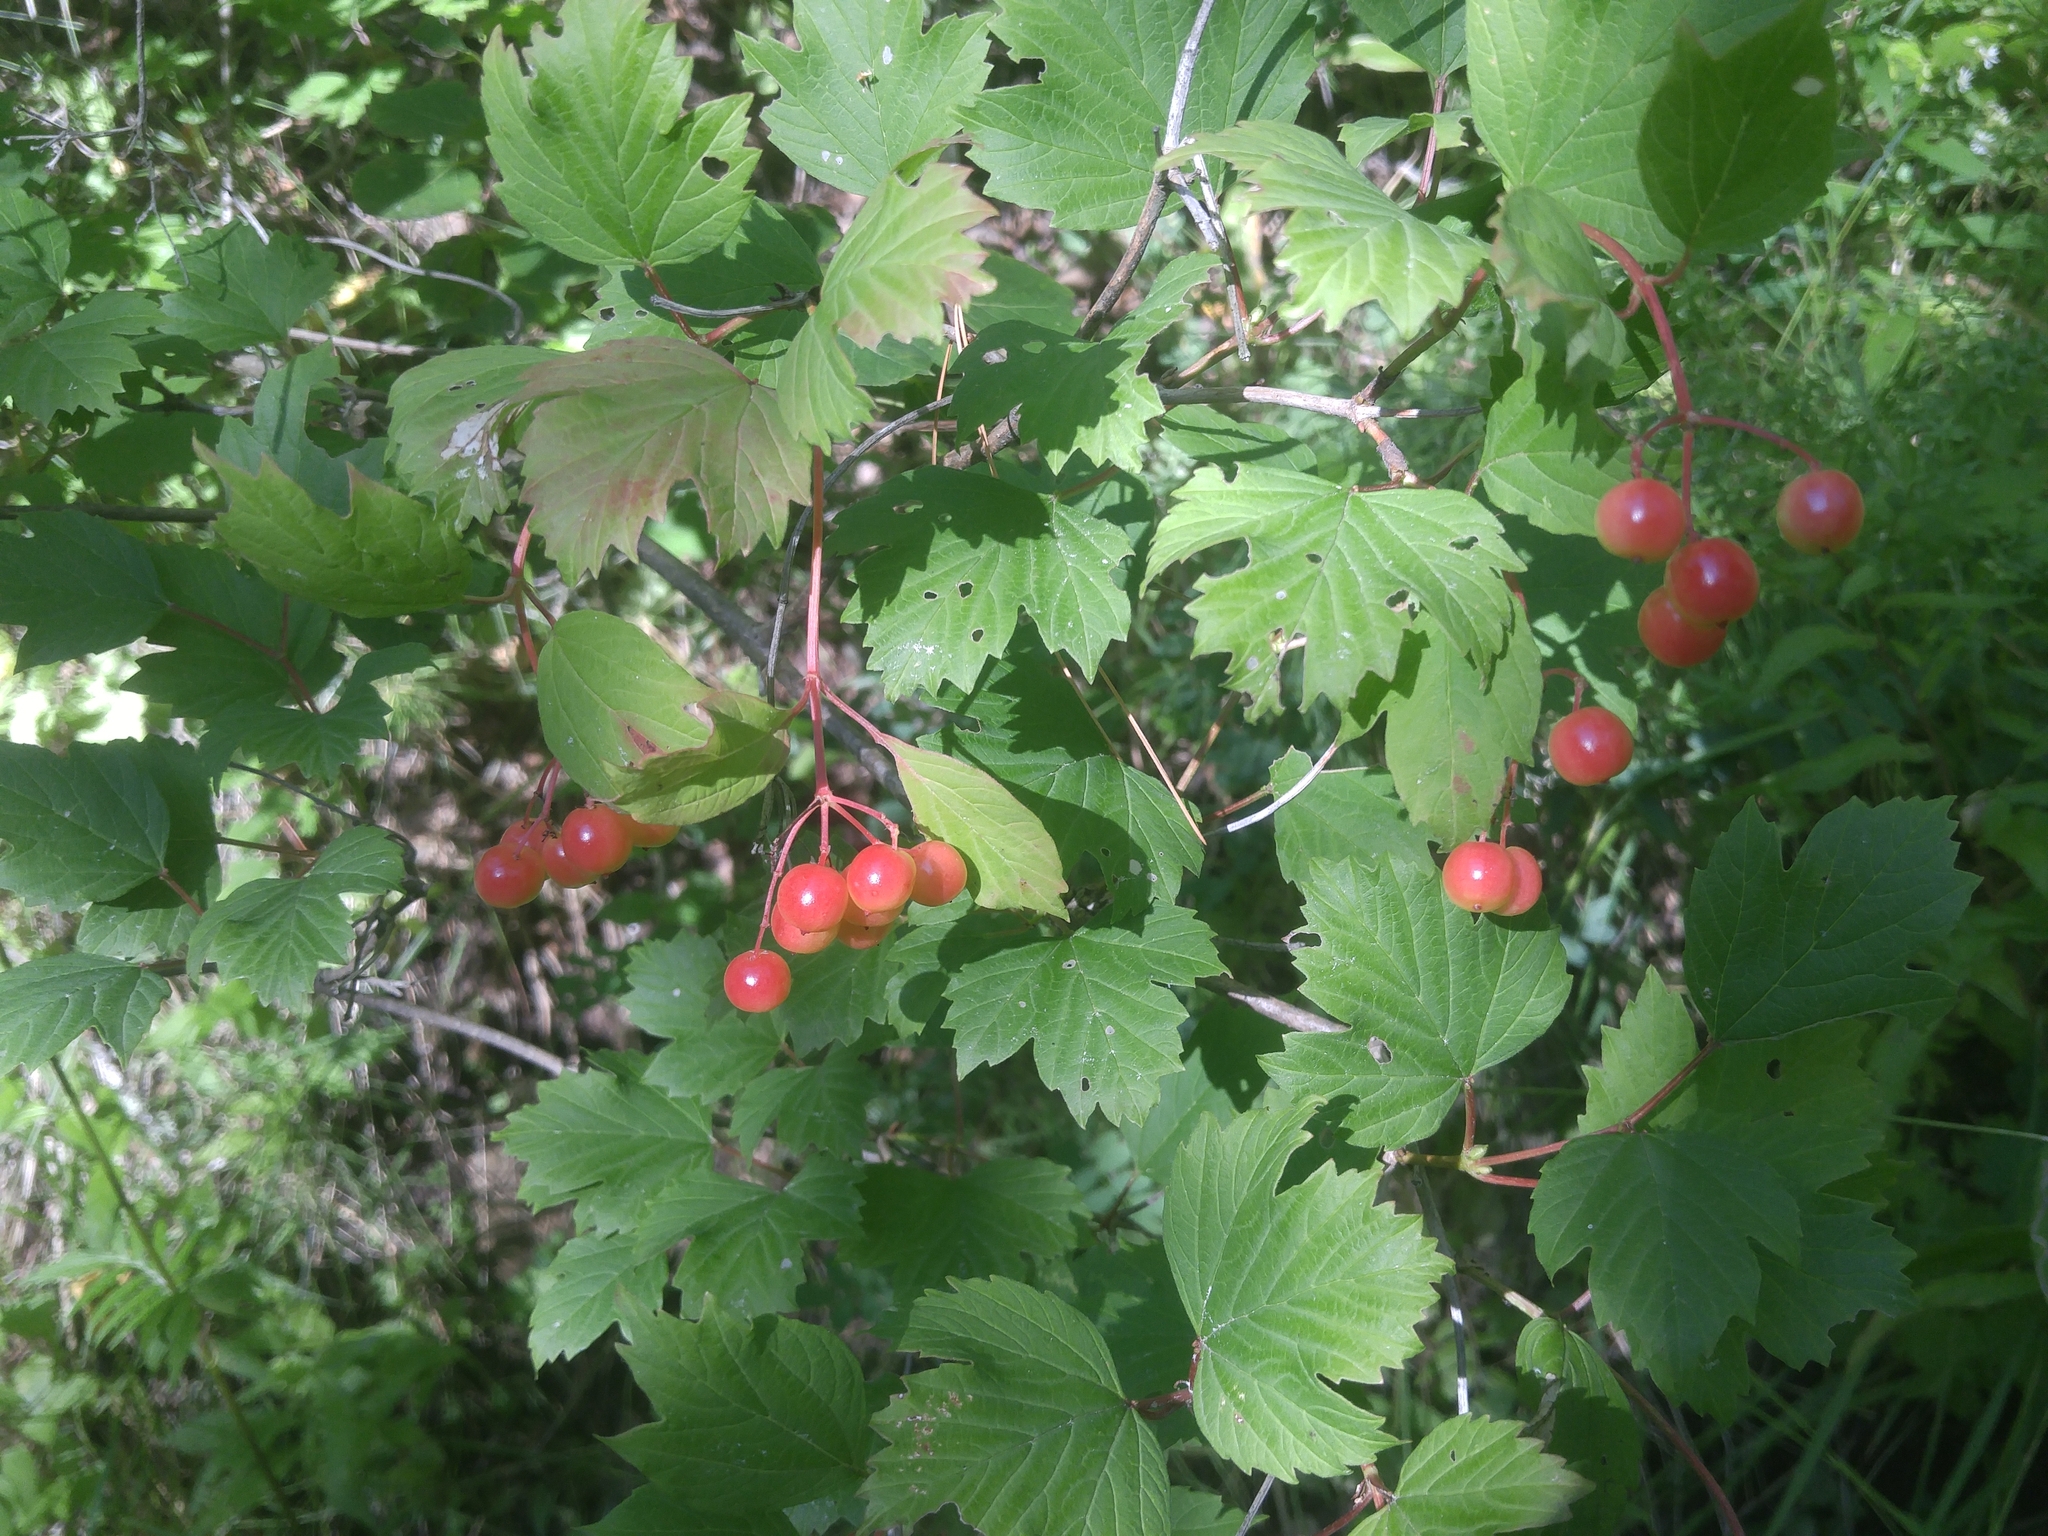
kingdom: Plantae
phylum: Tracheophyta
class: Magnoliopsida
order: Dipsacales
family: Viburnaceae
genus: Viburnum
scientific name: Viburnum opulus
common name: Guelder-rose
